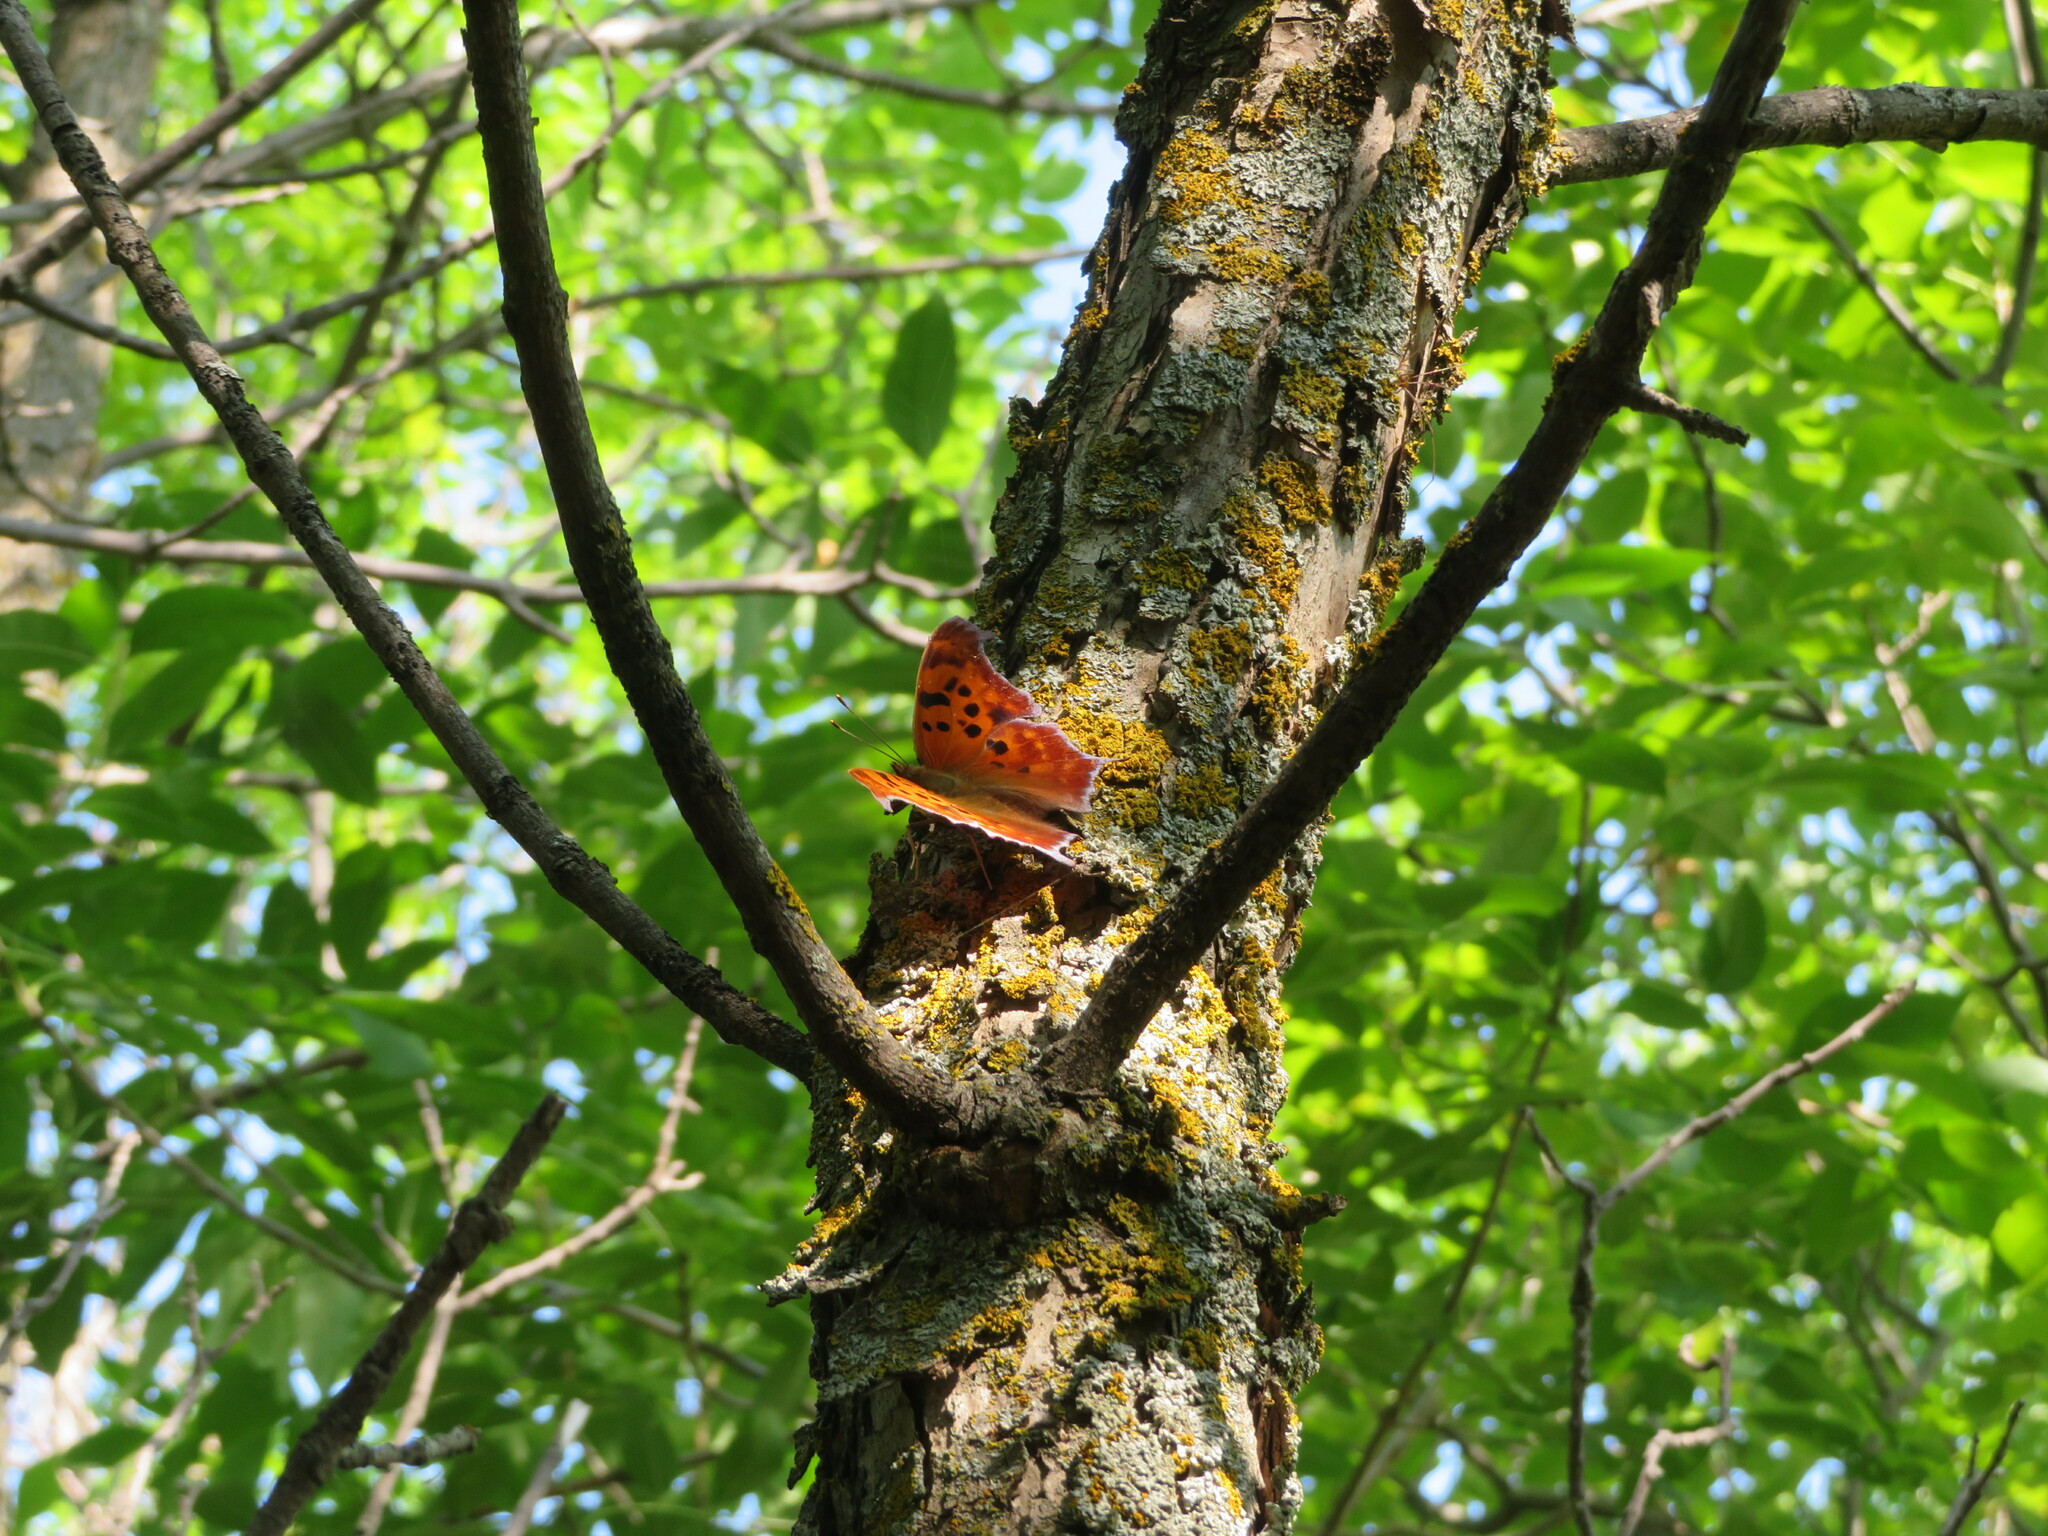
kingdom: Animalia
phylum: Arthropoda
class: Insecta
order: Lepidoptera
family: Nymphalidae
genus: Polygonia
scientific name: Polygonia interrogationis
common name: Question mark
